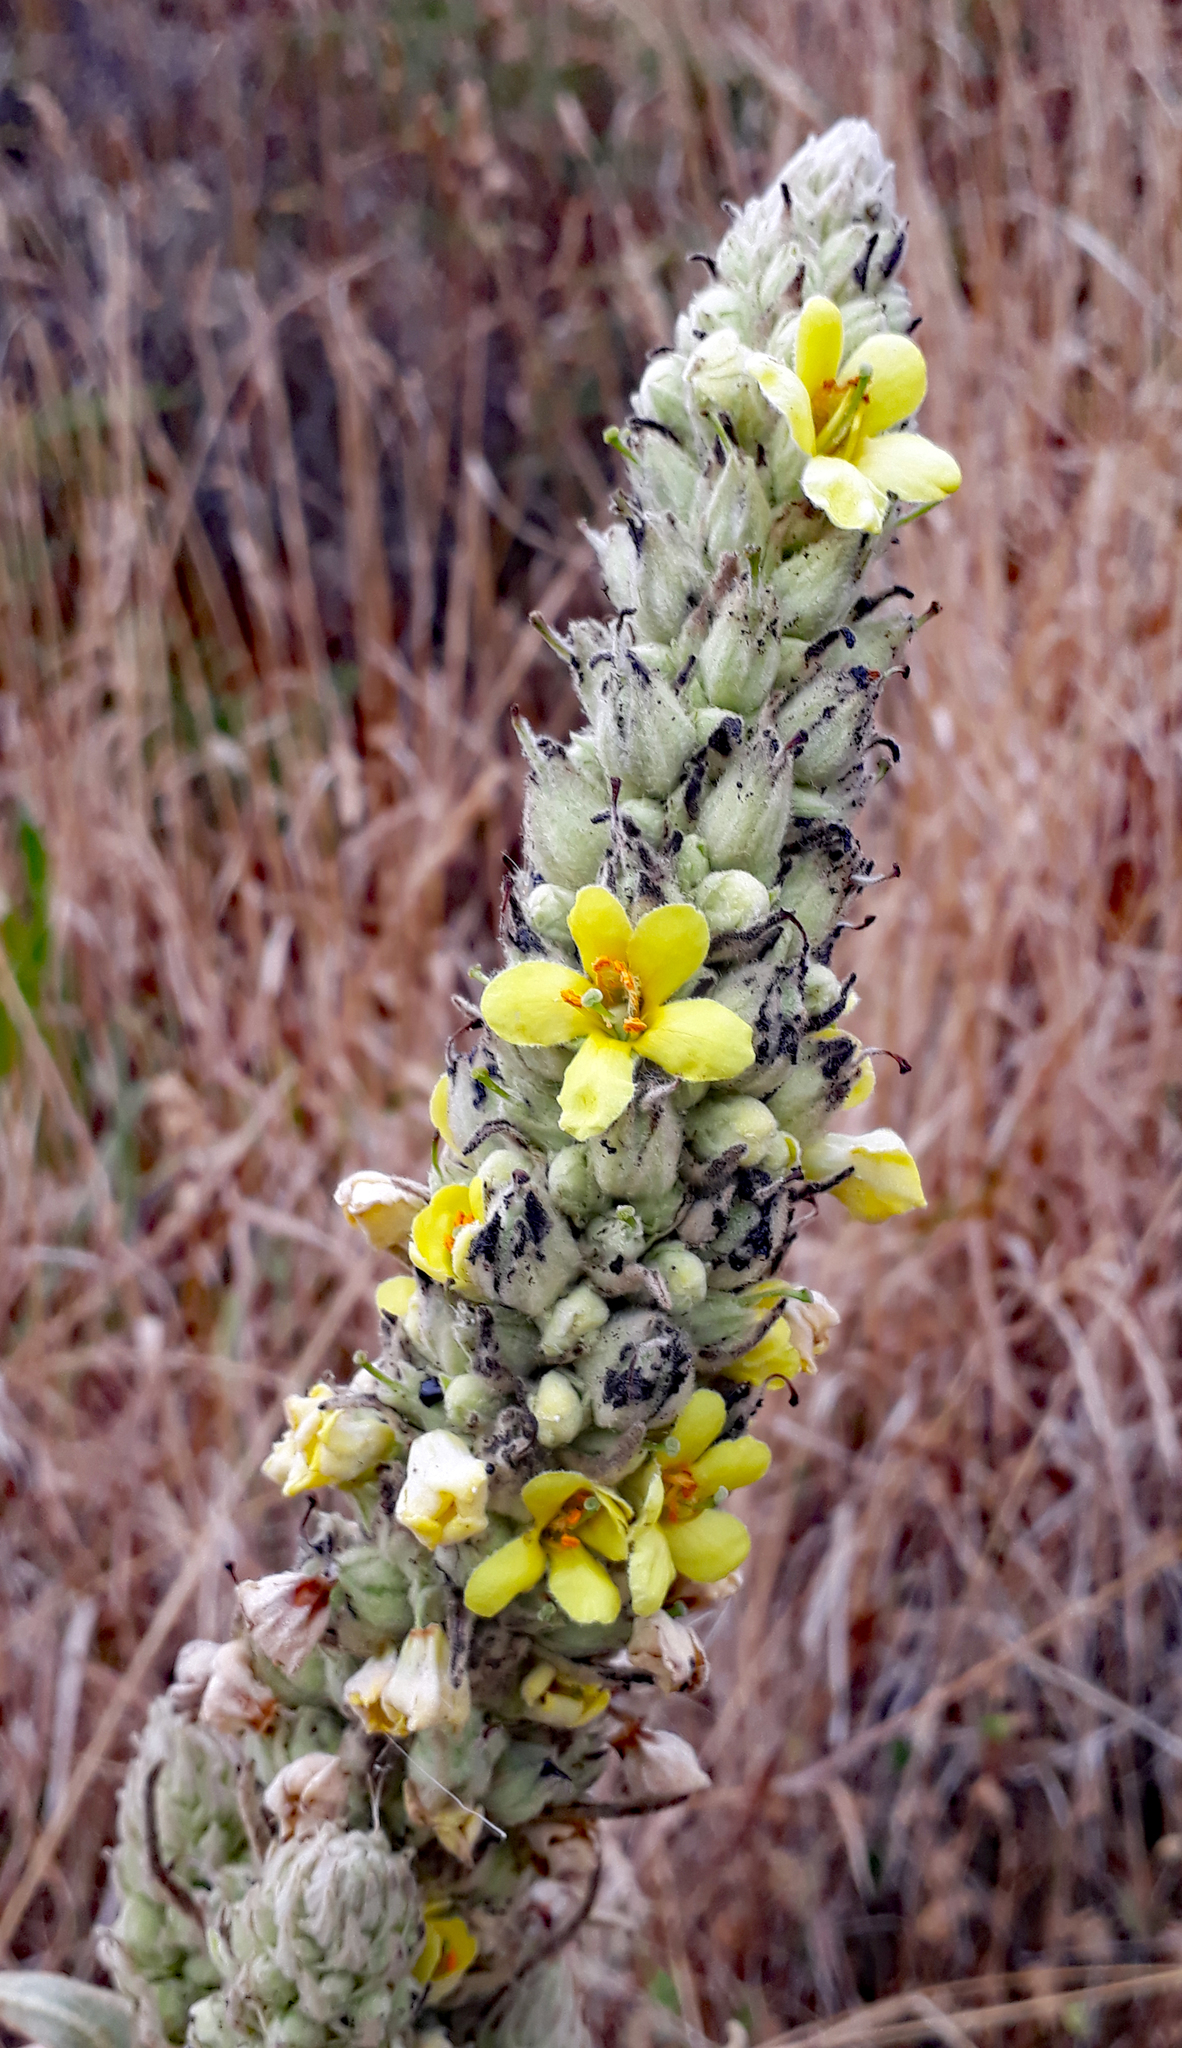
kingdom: Plantae
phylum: Tracheophyta
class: Magnoliopsida
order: Lamiales
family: Scrophulariaceae
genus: Verbascum
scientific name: Verbascum thapsus
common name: Common mullein
